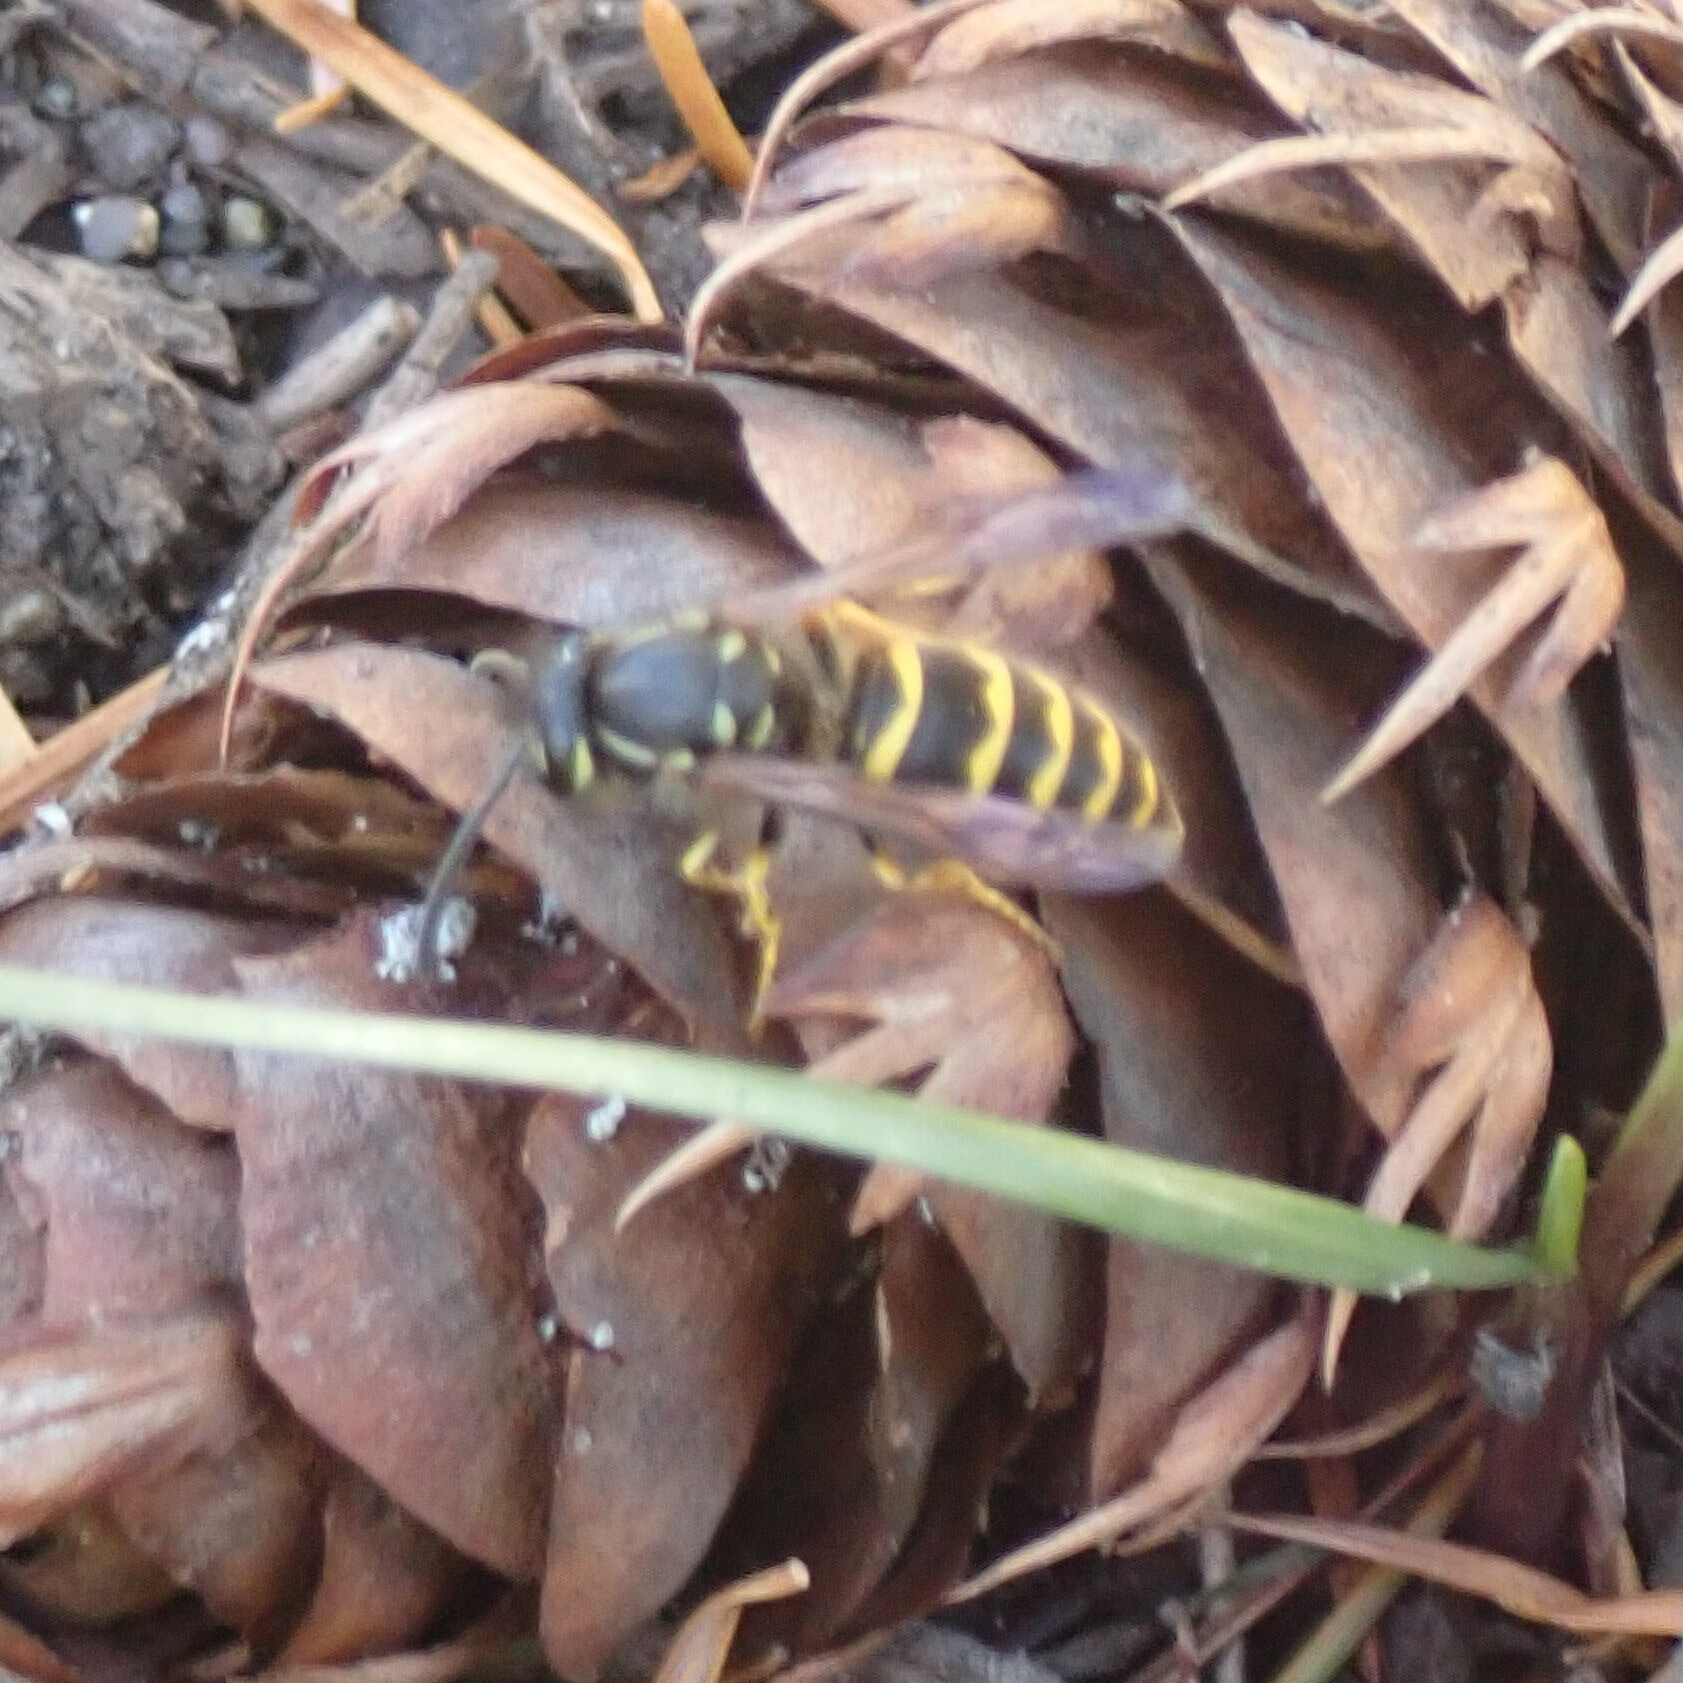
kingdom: Animalia
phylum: Arthropoda
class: Insecta
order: Hymenoptera
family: Vespidae
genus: Vespula
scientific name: Vespula alascensis
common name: Alaska yellowjacket
